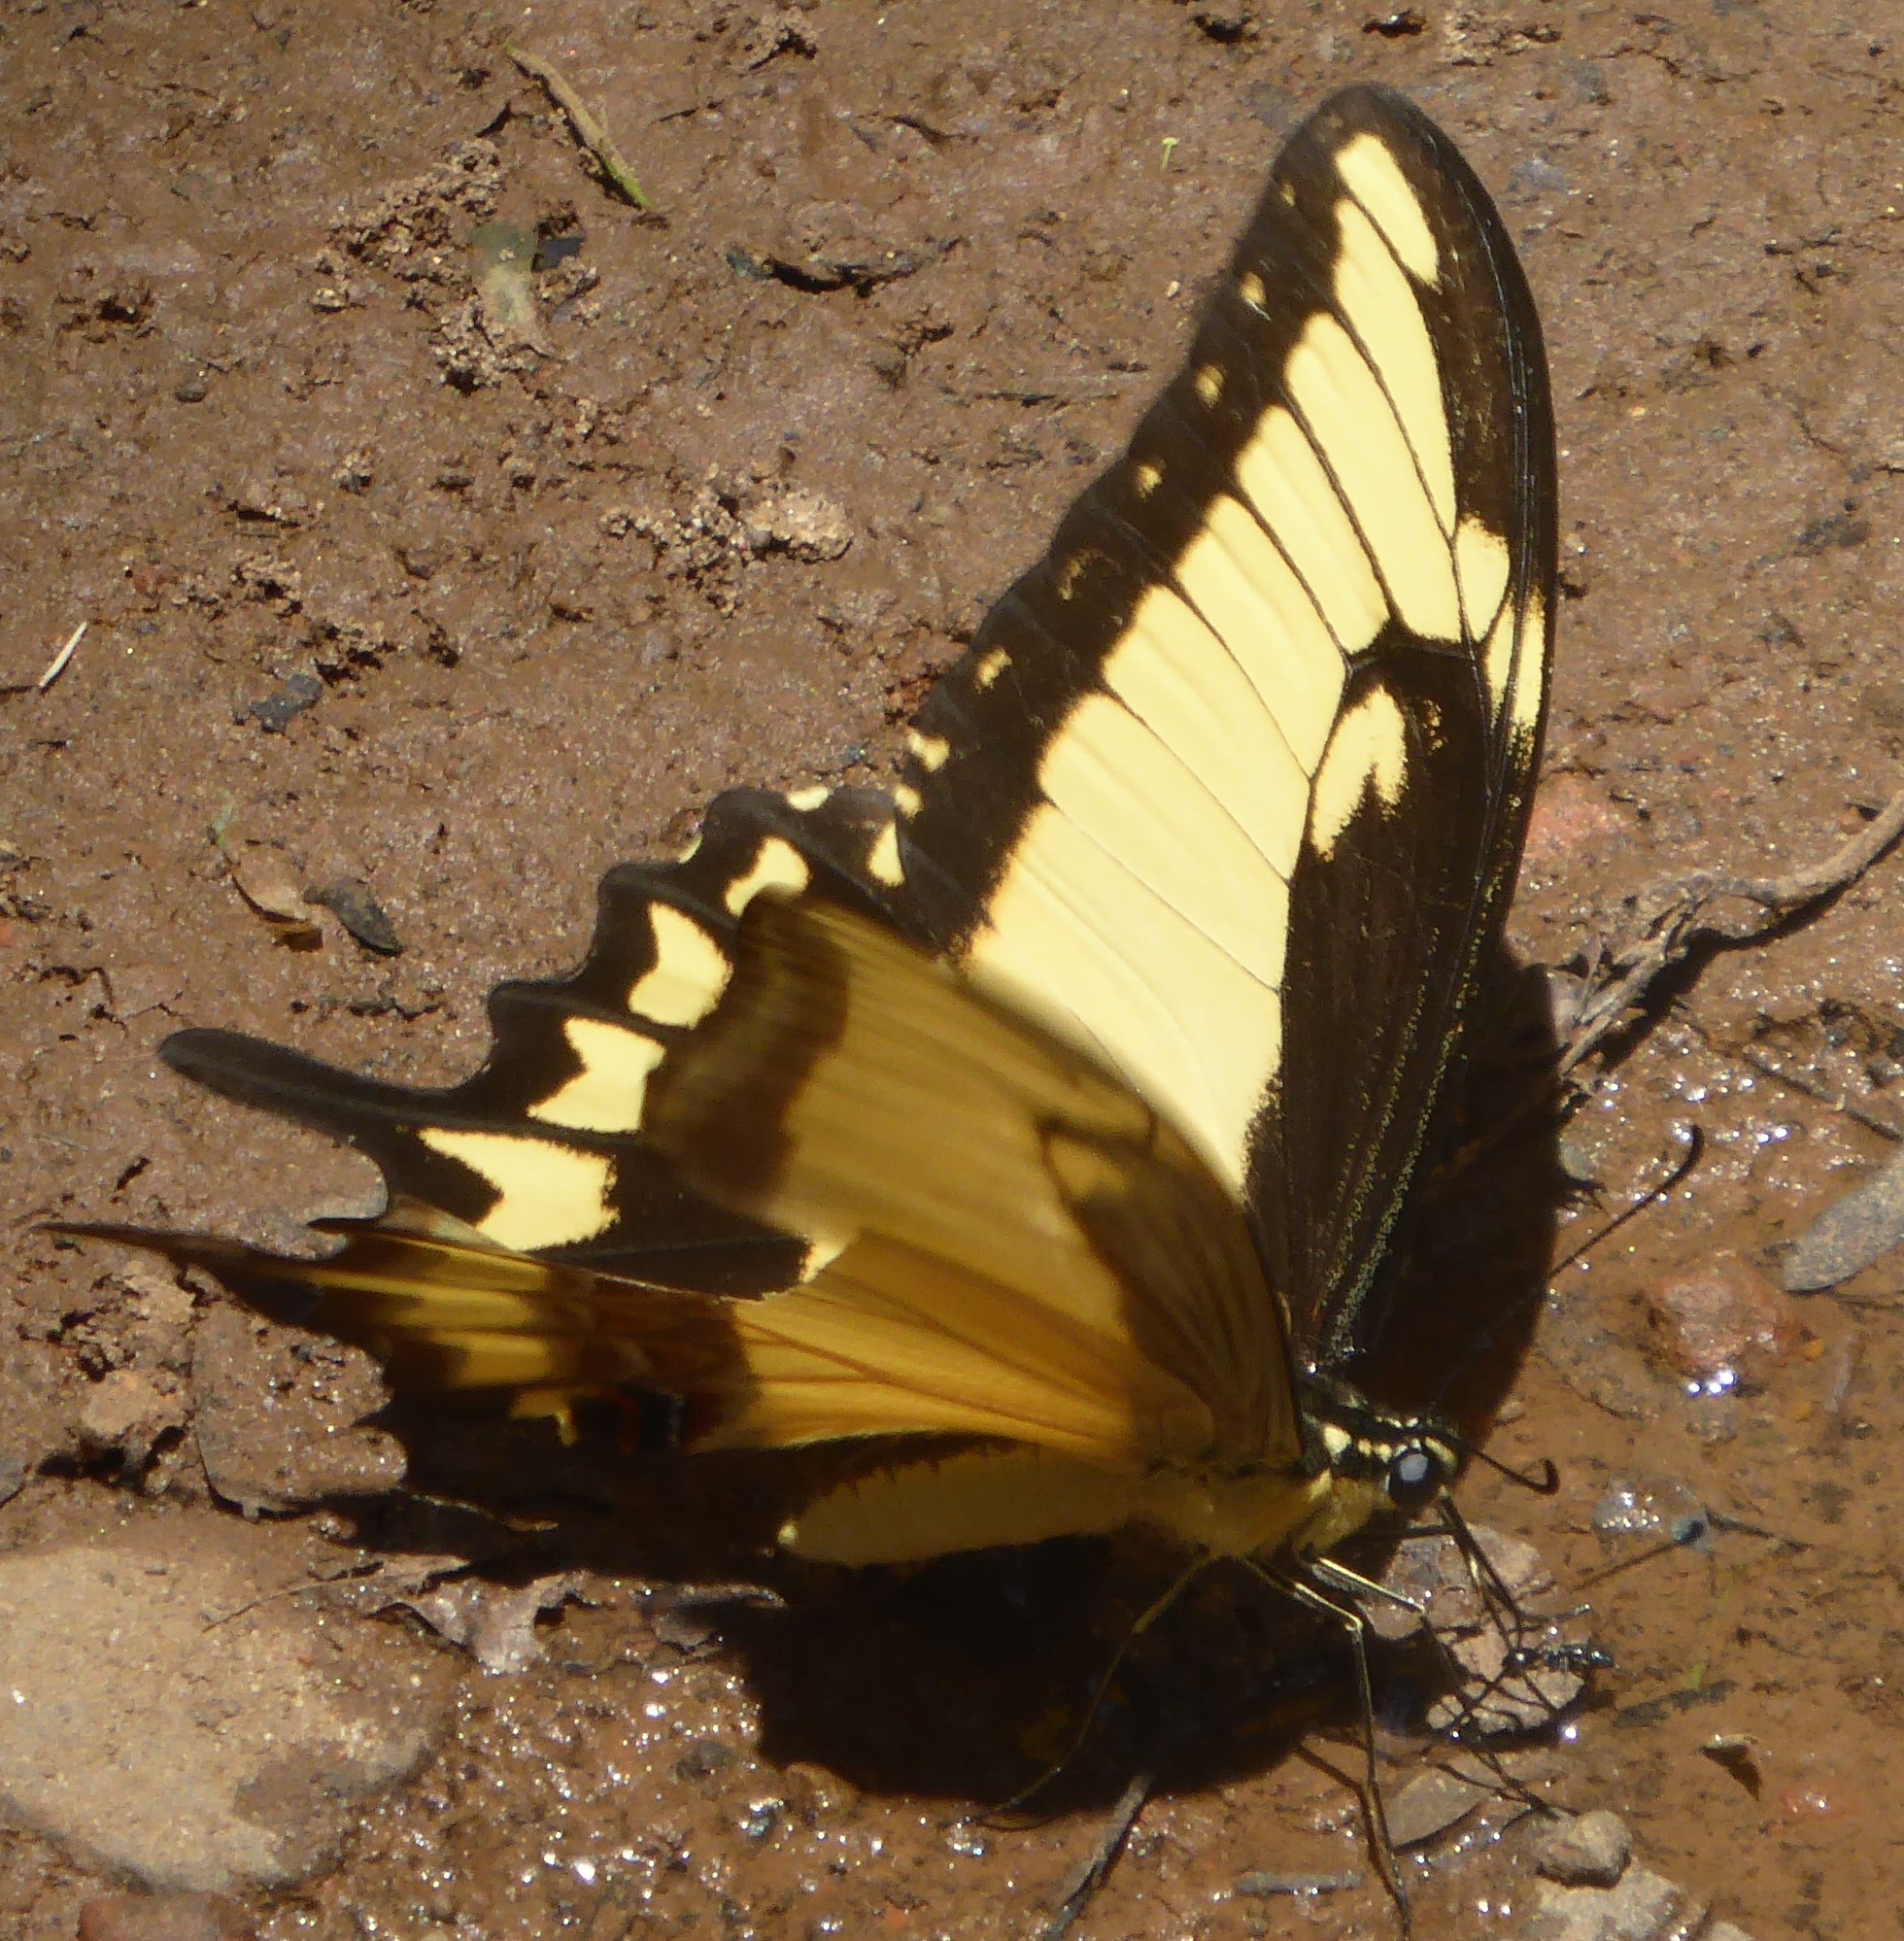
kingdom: Animalia
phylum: Arthropoda
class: Insecta
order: Lepidoptera
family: Papilionidae
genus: Papilio
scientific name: Papilio astyalus
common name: Astyalus swallowtail
